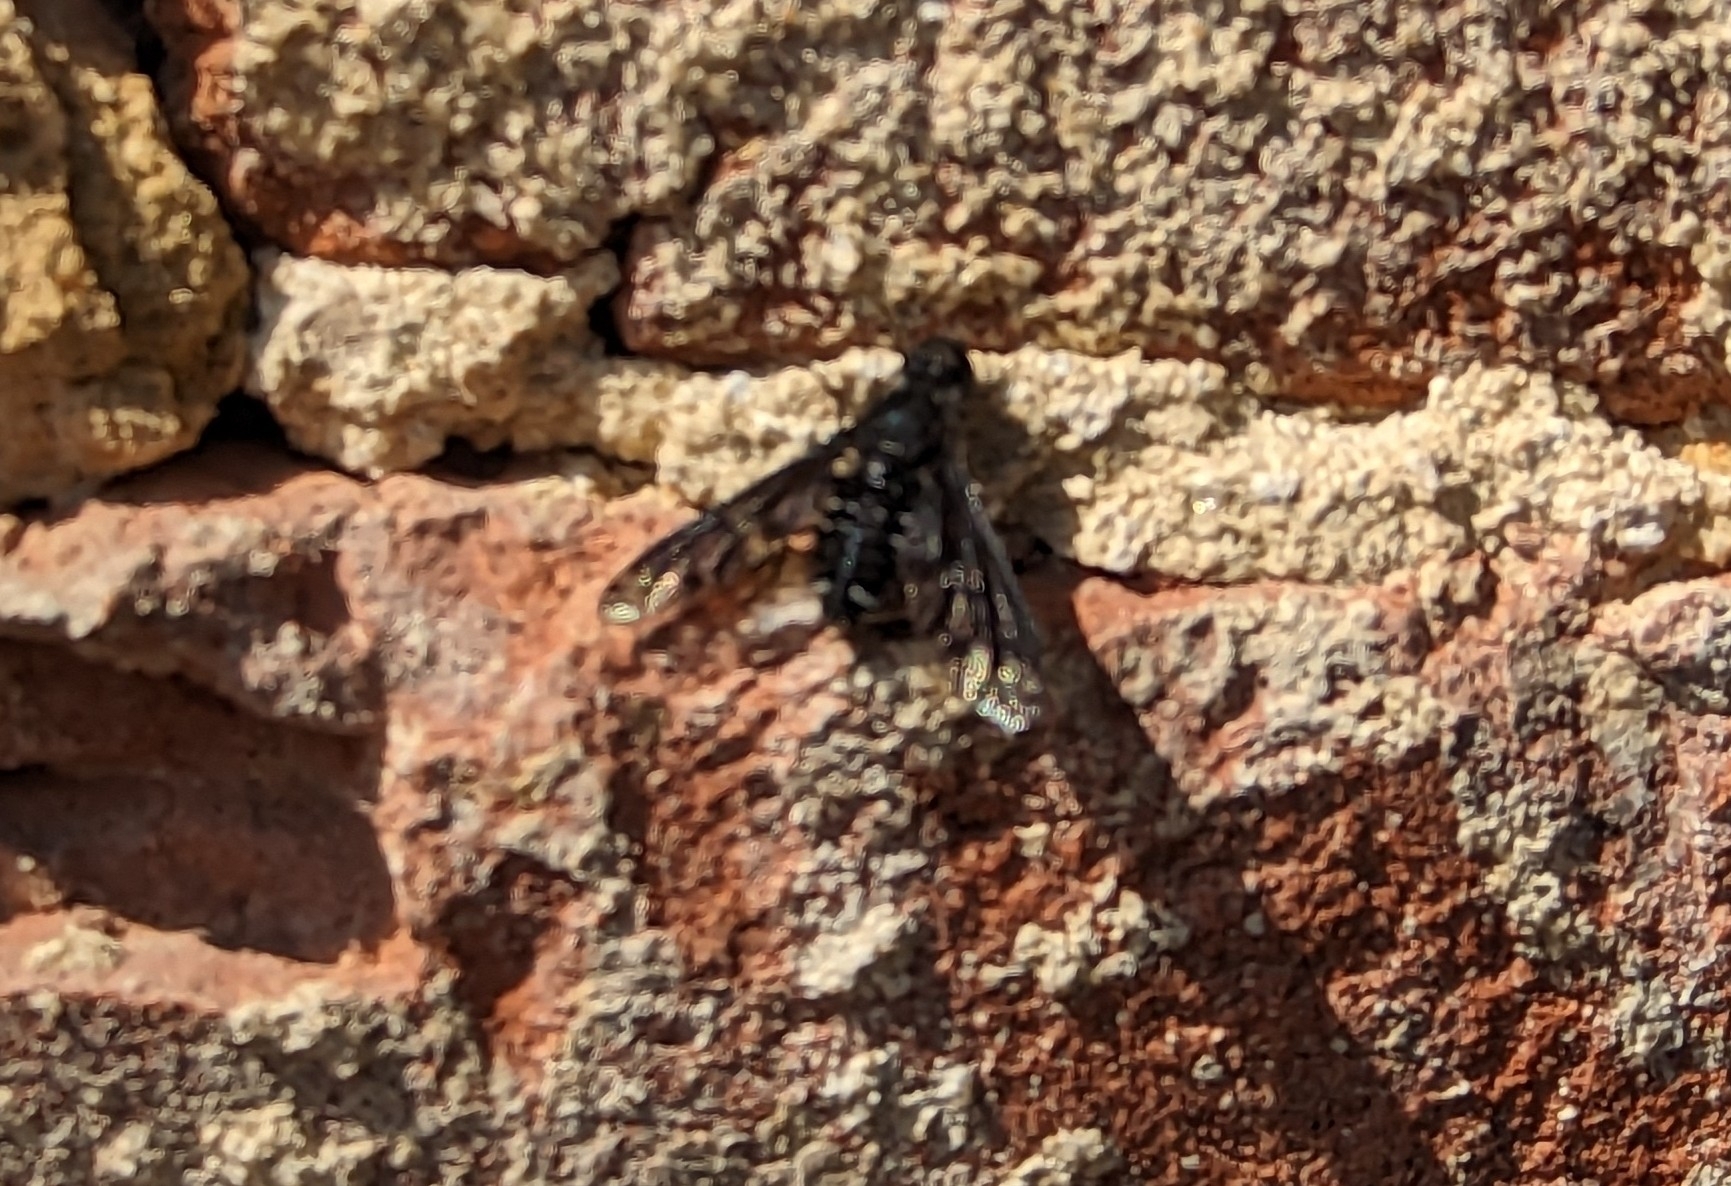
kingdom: Animalia
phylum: Arthropoda
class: Insecta
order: Diptera
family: Bombyliidae
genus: Anthrax
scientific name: Anthrax anthrax
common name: Anthracite bee-fly
